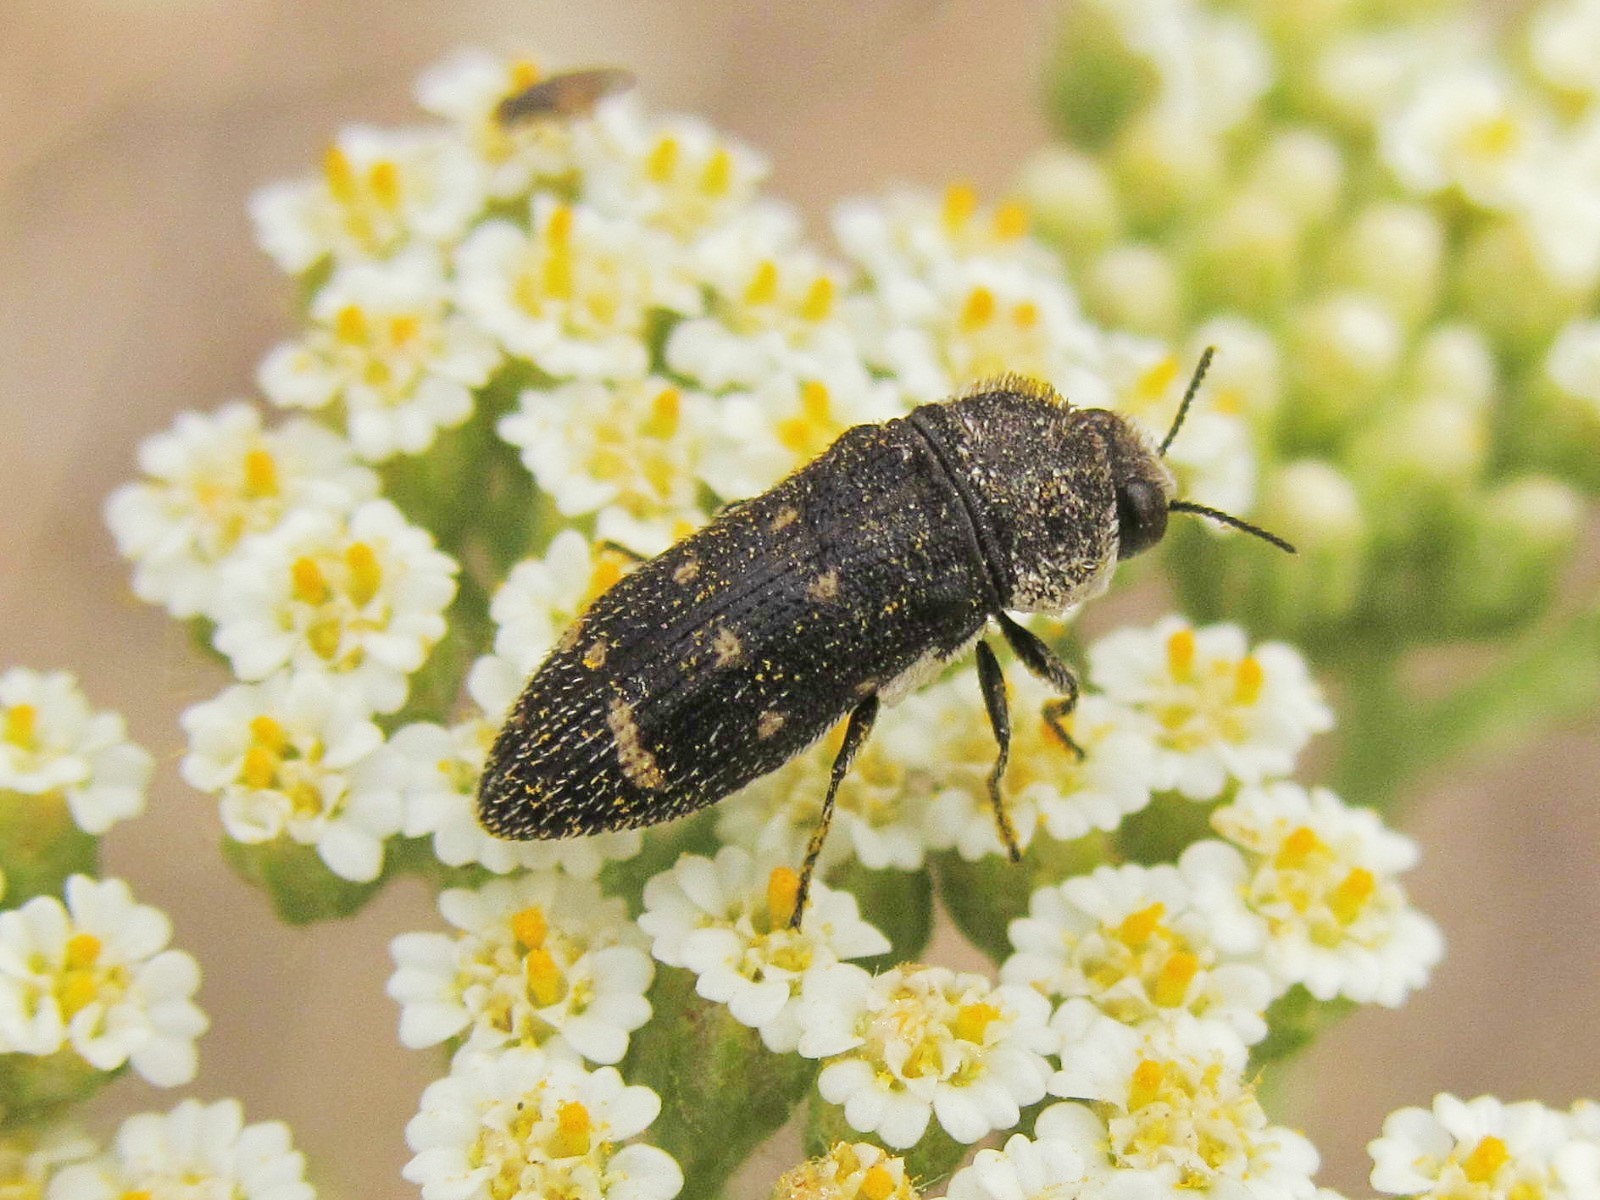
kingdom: Animalia
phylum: Arthropoda
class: Insecta
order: Coleoptera
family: Buprestidae
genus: Acmaeoderella
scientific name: Acmaeoderella flavofasciata
